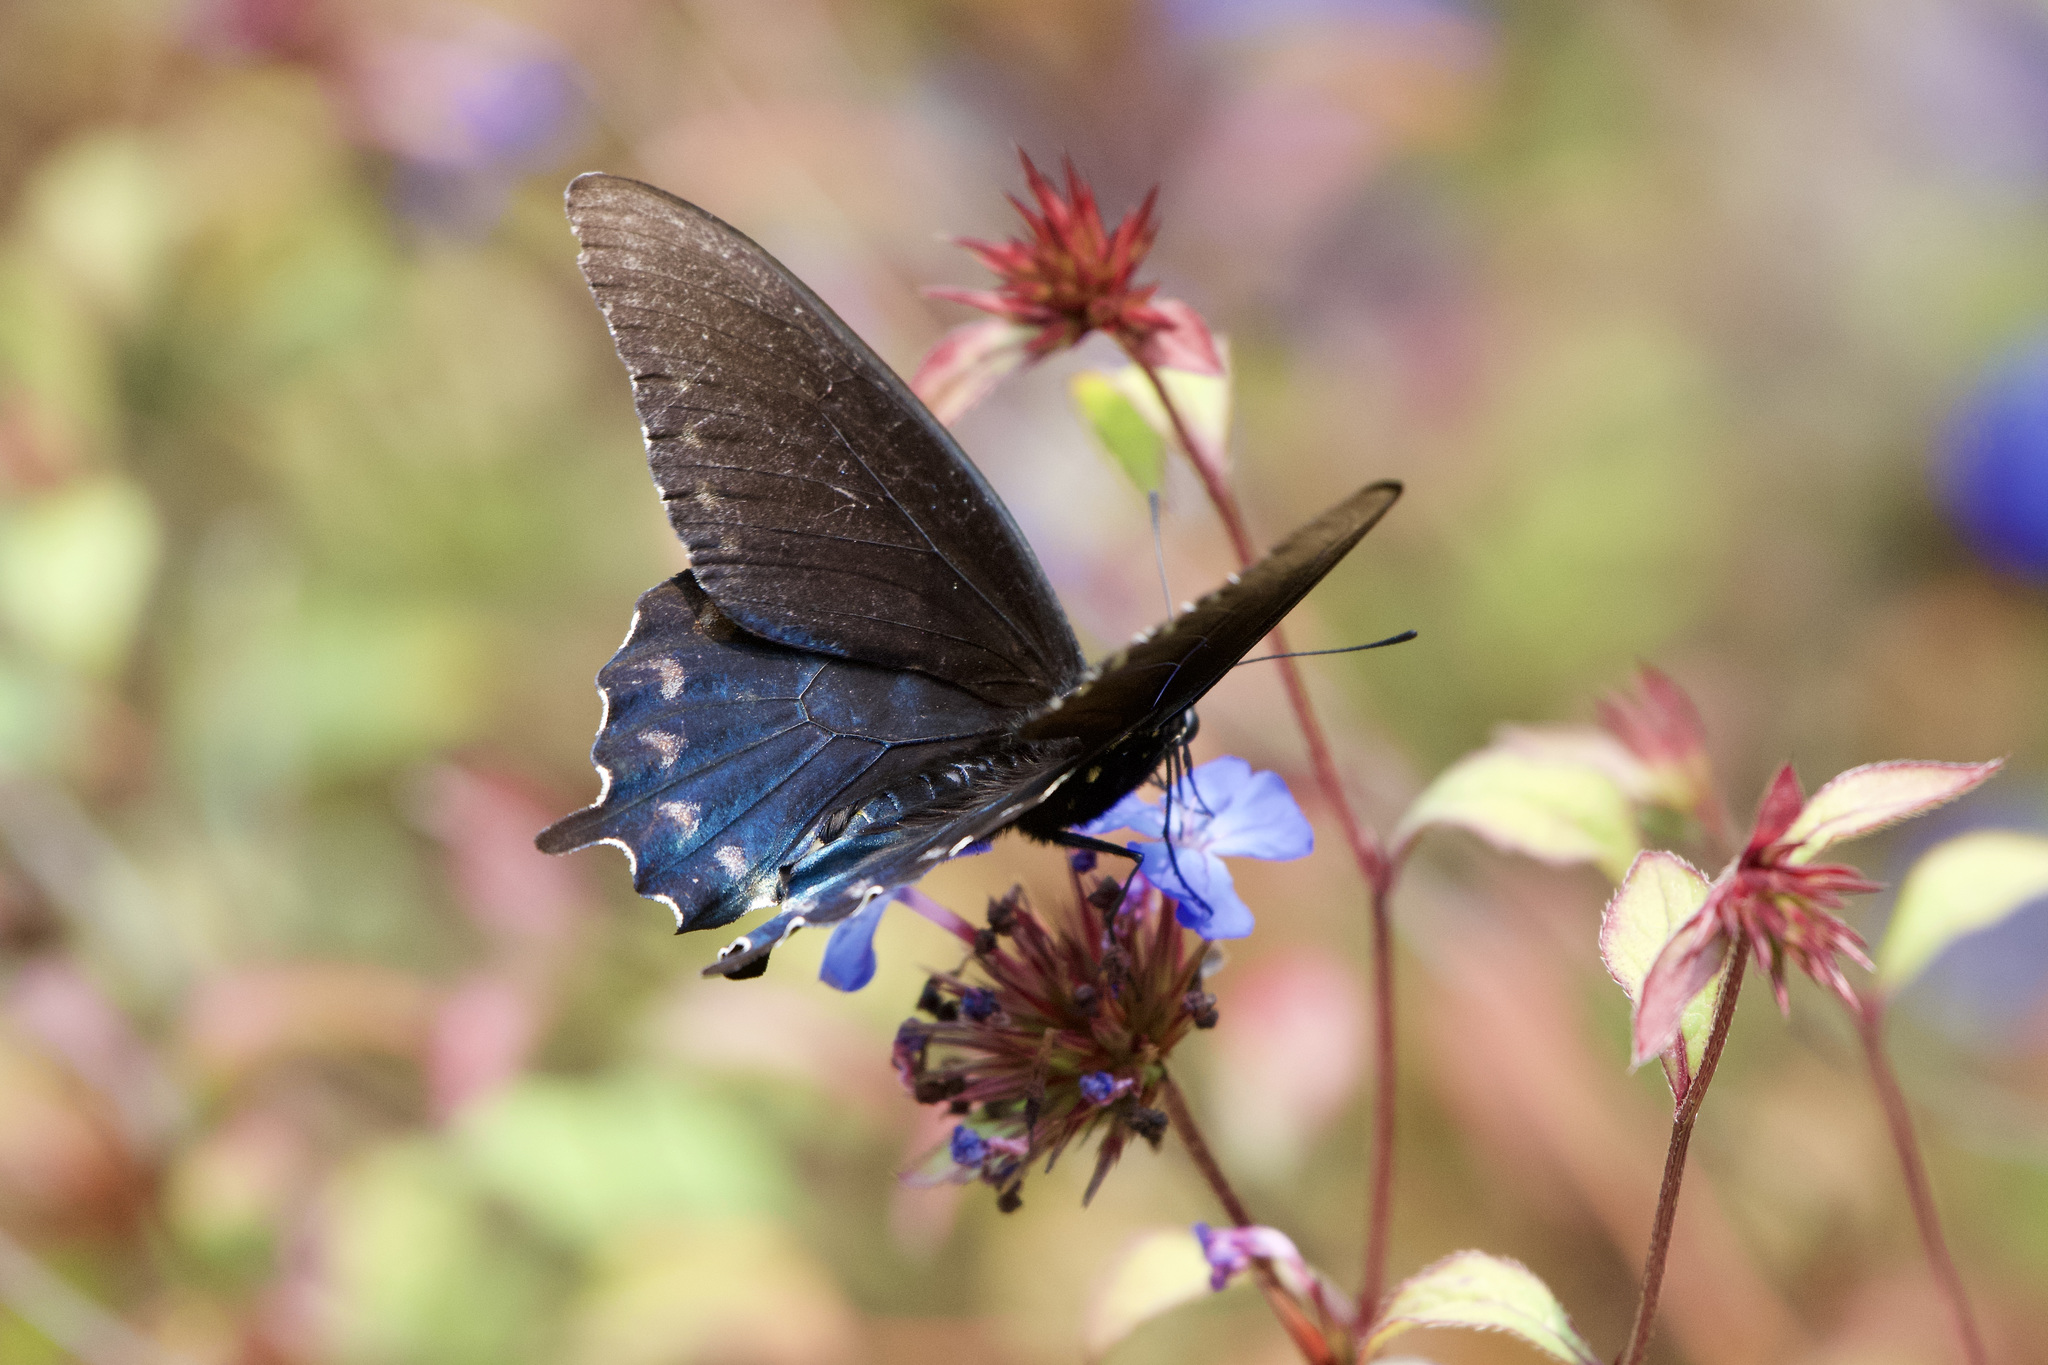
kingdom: Animalia
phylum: Arthropoda
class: Insecta
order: Lepidoptera
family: Papilionidae
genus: Battus
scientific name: Battus philenor
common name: Pipevine swallowtail
